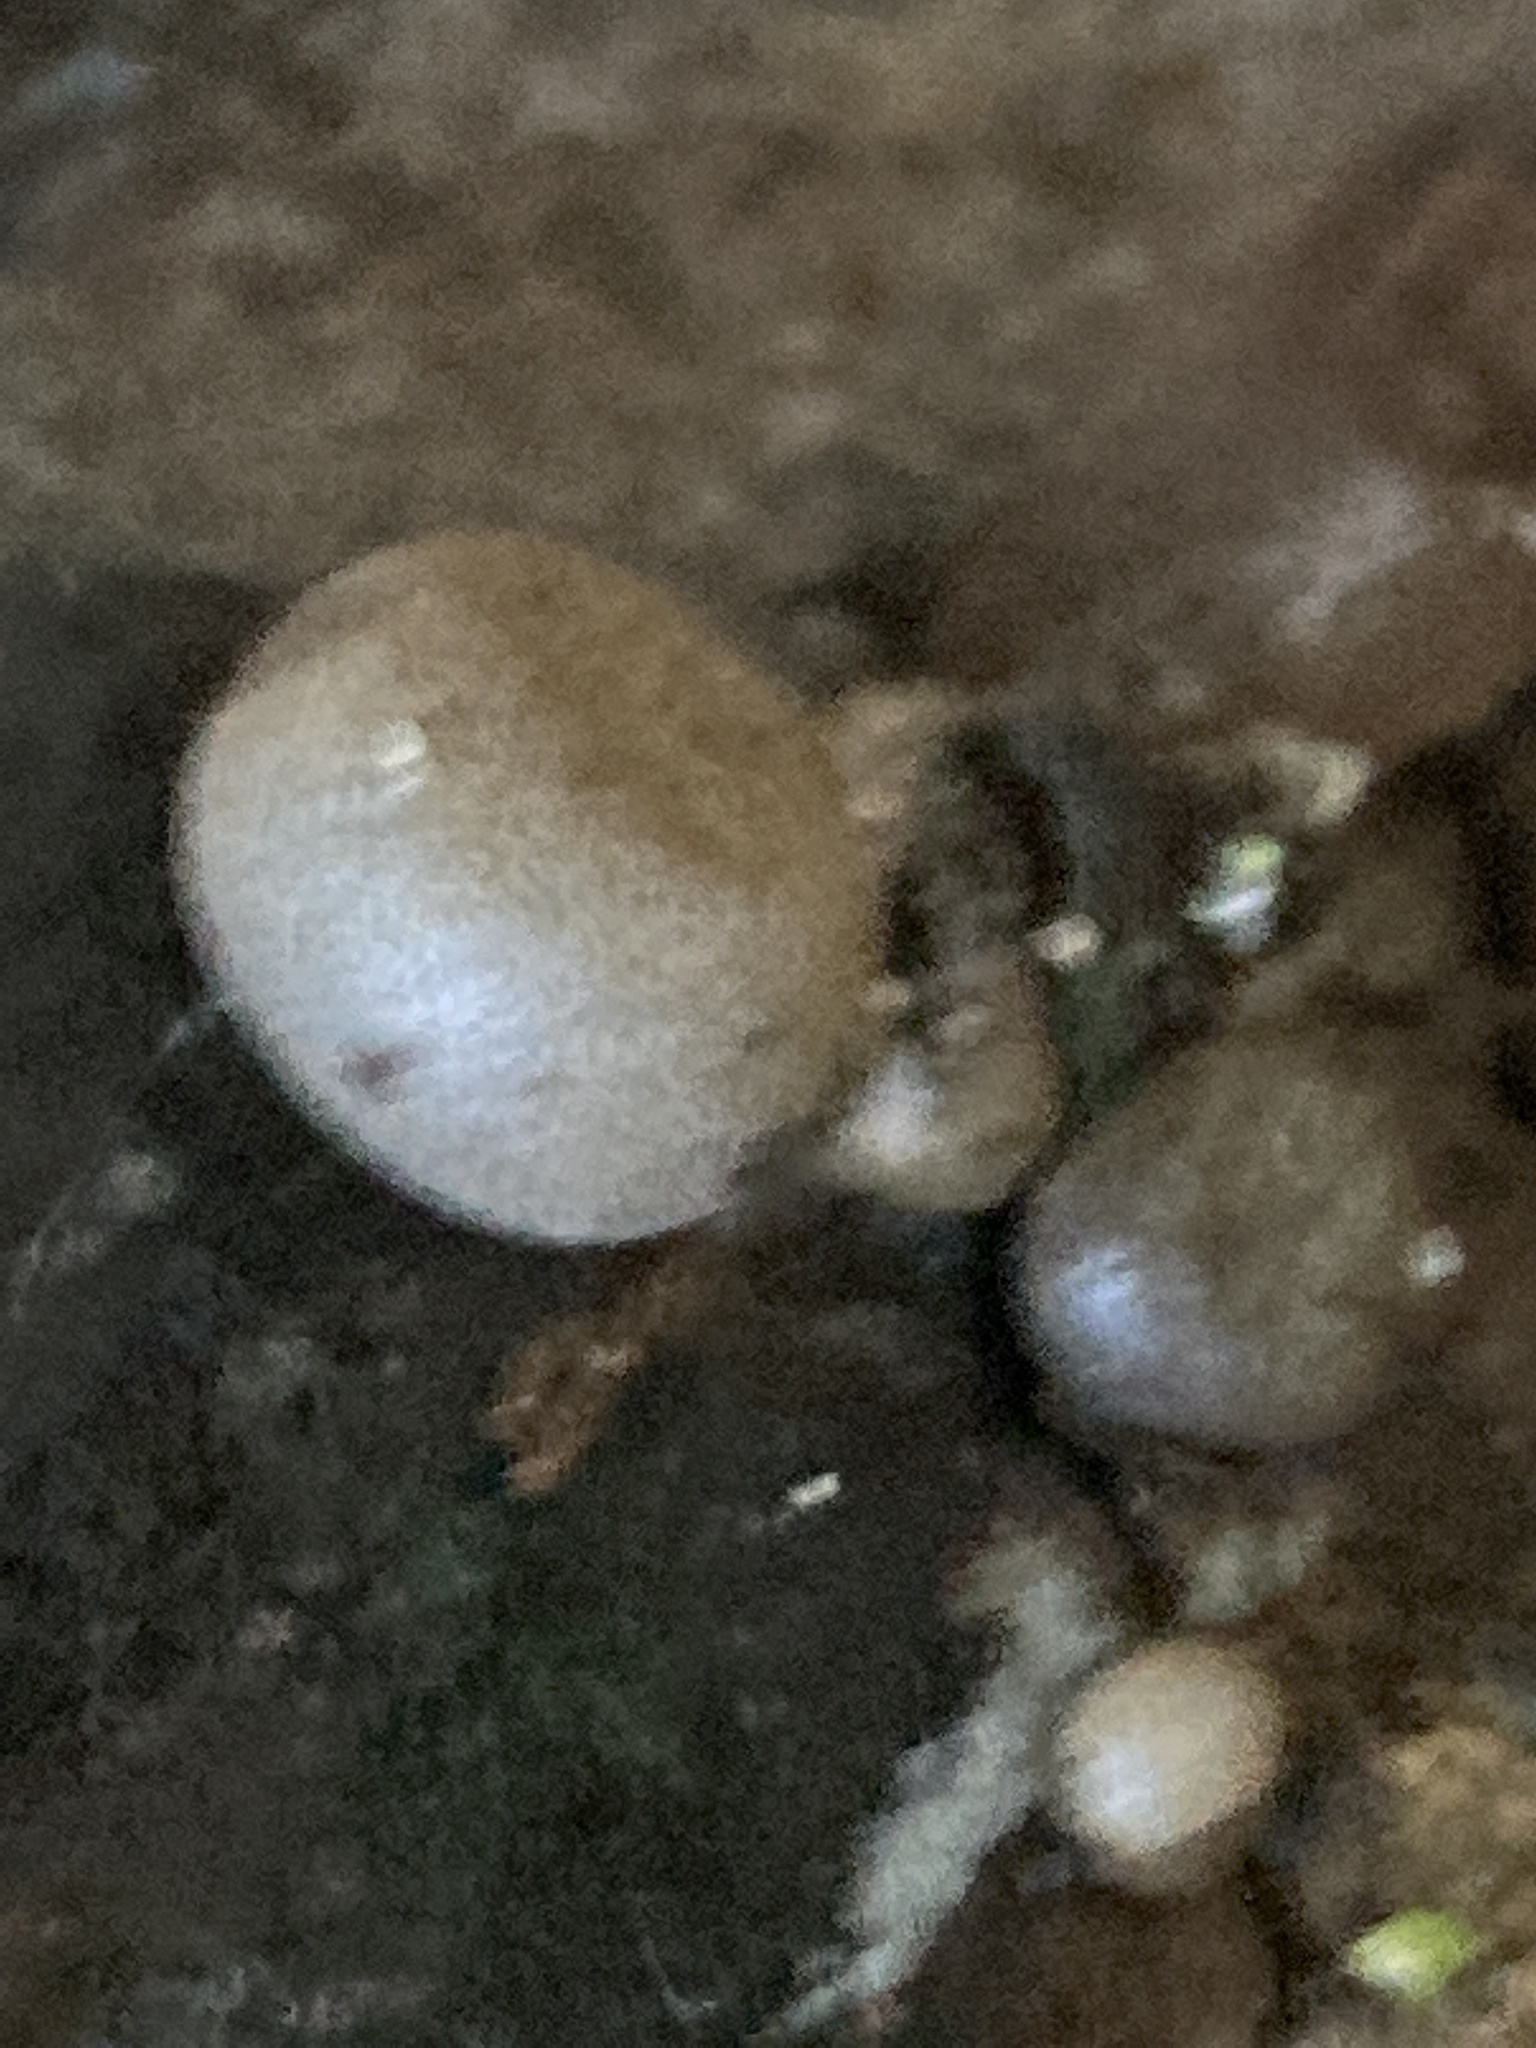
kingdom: Protozoa
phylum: Mycetozoa
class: Myxomycetes
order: Cribrariales
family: Tubiferaceae
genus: Lycogala
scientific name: Lycogala epidendrum
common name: Wolf's milk
